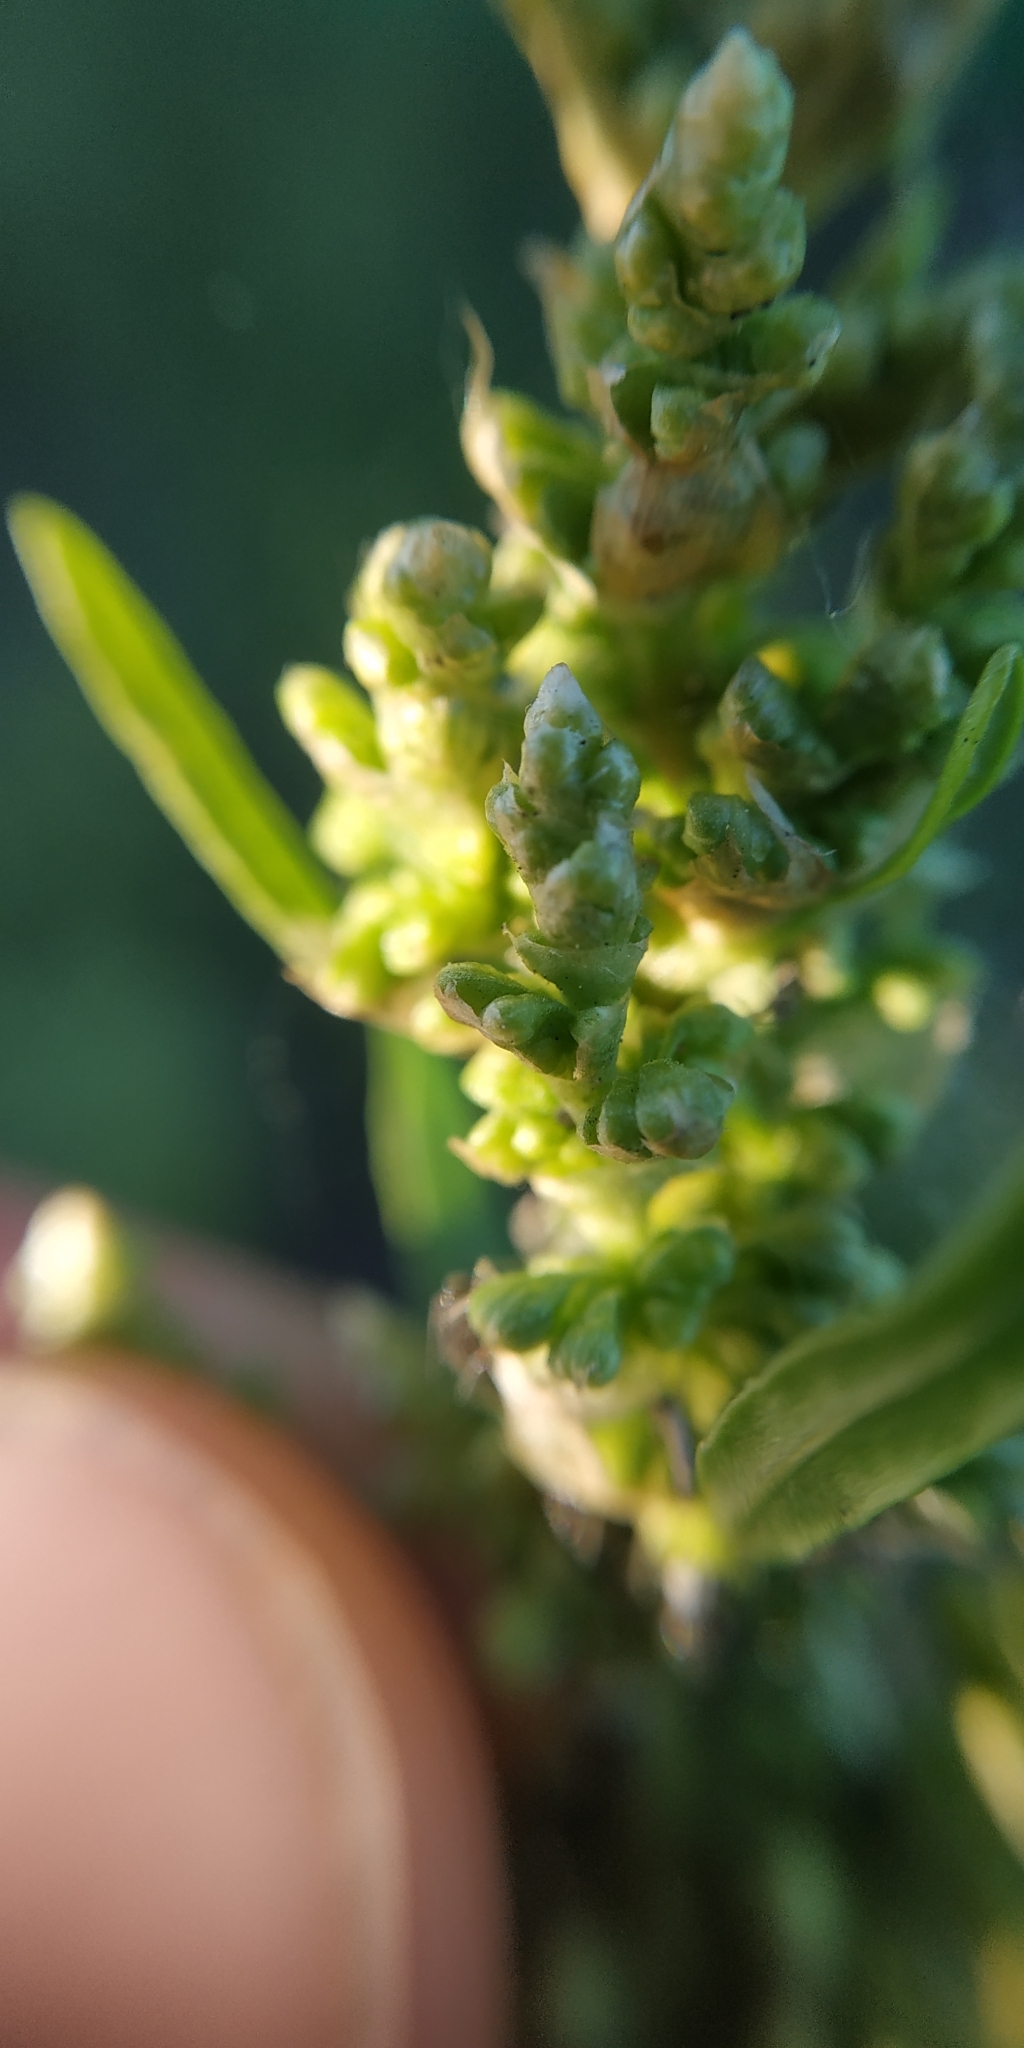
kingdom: Plantae
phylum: Tracheophyta
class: Magnoliopsida
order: Caryophyllales
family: Polygonaceae
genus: Rumex
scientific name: Rumex pseudonatronatus
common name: Field dock
